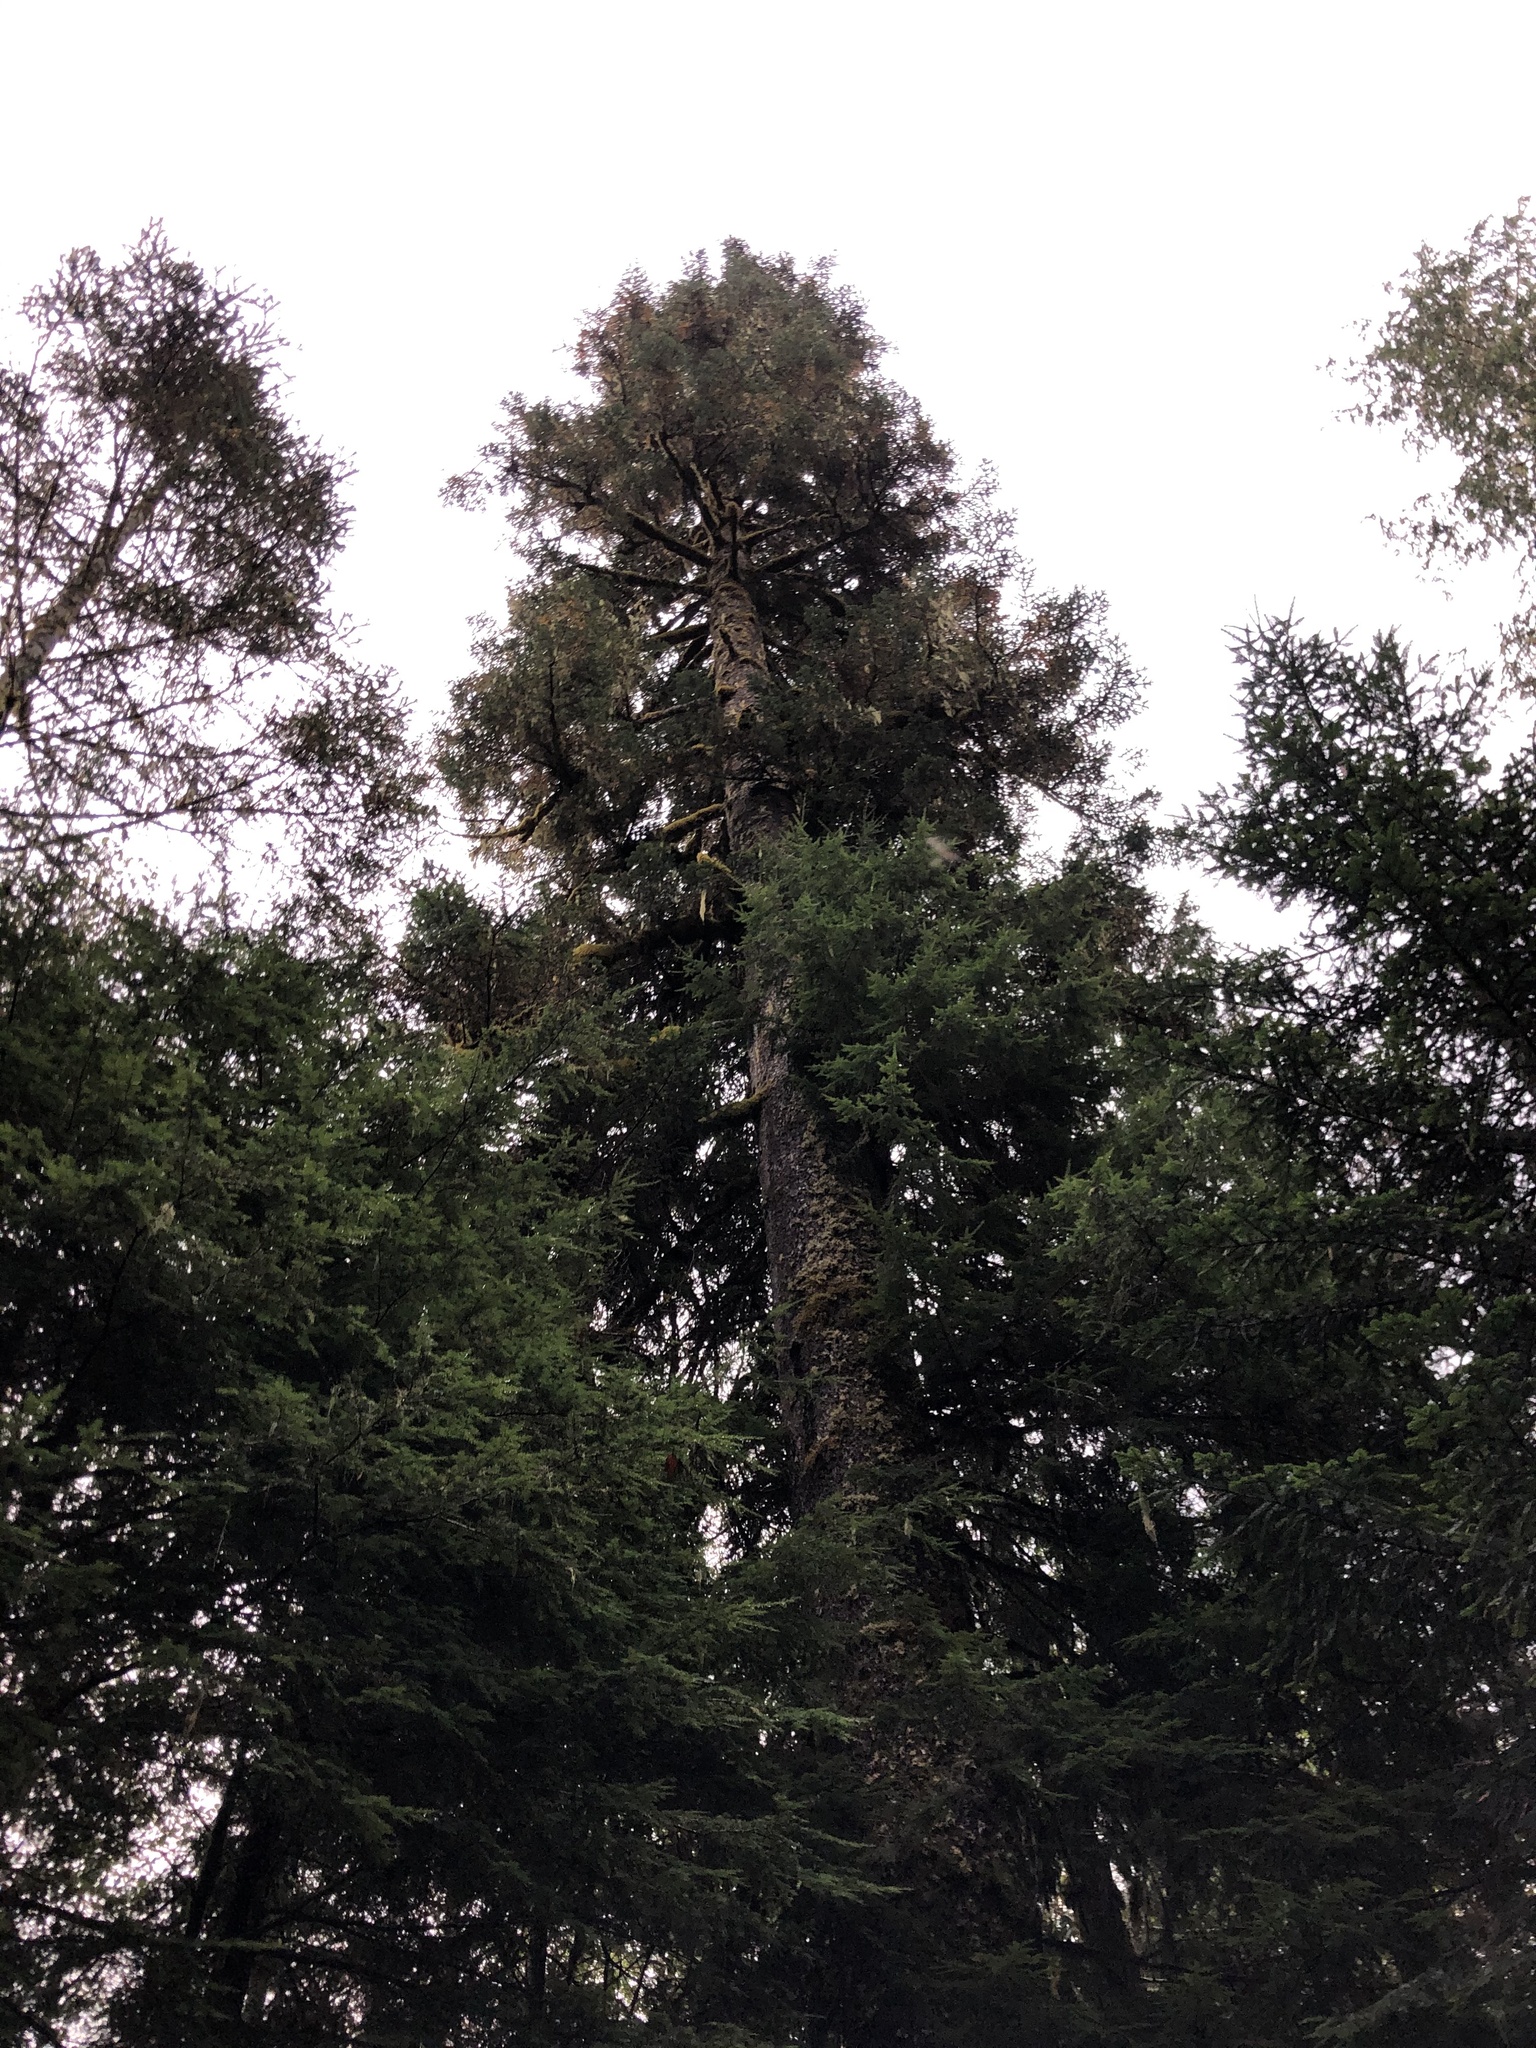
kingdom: Plantae
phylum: Tracheophyta
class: Pinopsida
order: Pinales
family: Pinaceae
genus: Abies
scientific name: Abies amabilis
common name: Pacific silver fir
